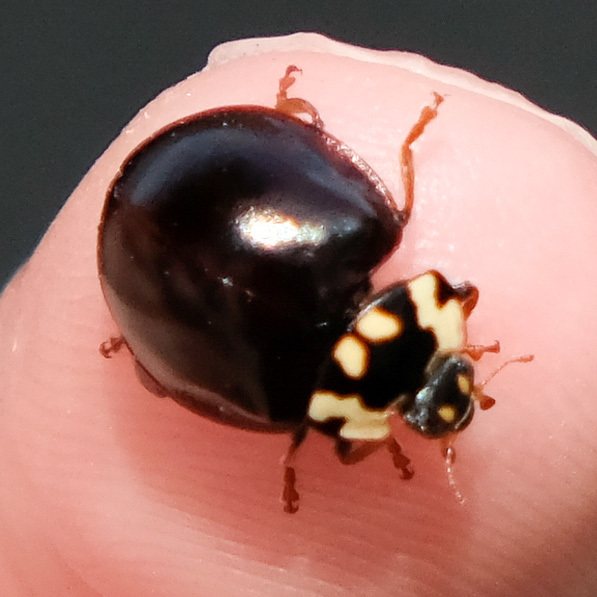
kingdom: Animalia
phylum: Arthropoda
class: Insecta
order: Coleoptera
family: Coccinellidae
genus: Anatis
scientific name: Anatis labiculata
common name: Fifteen-spotted lady beetle
